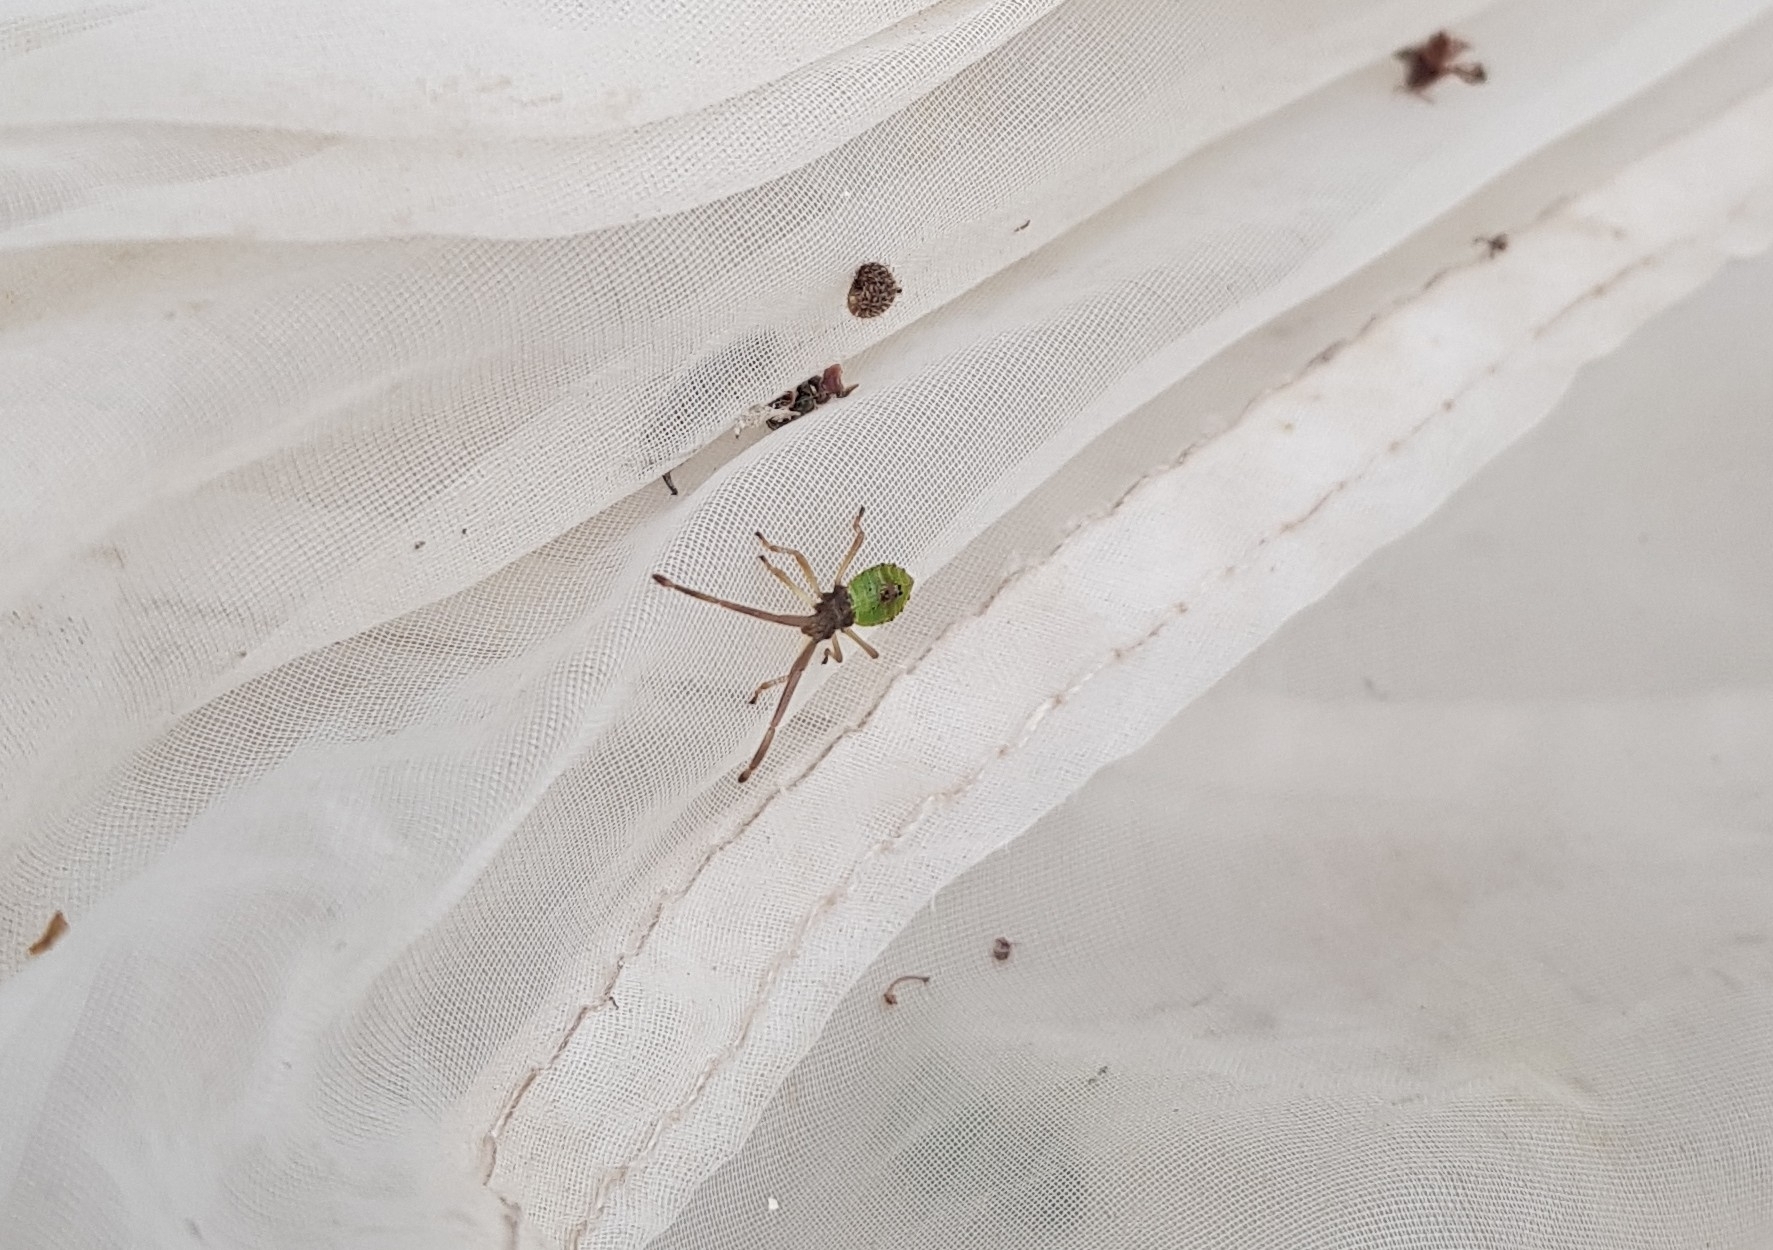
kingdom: Animalia
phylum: Arthropoda
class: Insecta
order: Hemiptera
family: Coreidae
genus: Gonocerus
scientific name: Gonocerus acuteangulatus
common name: Box bug
